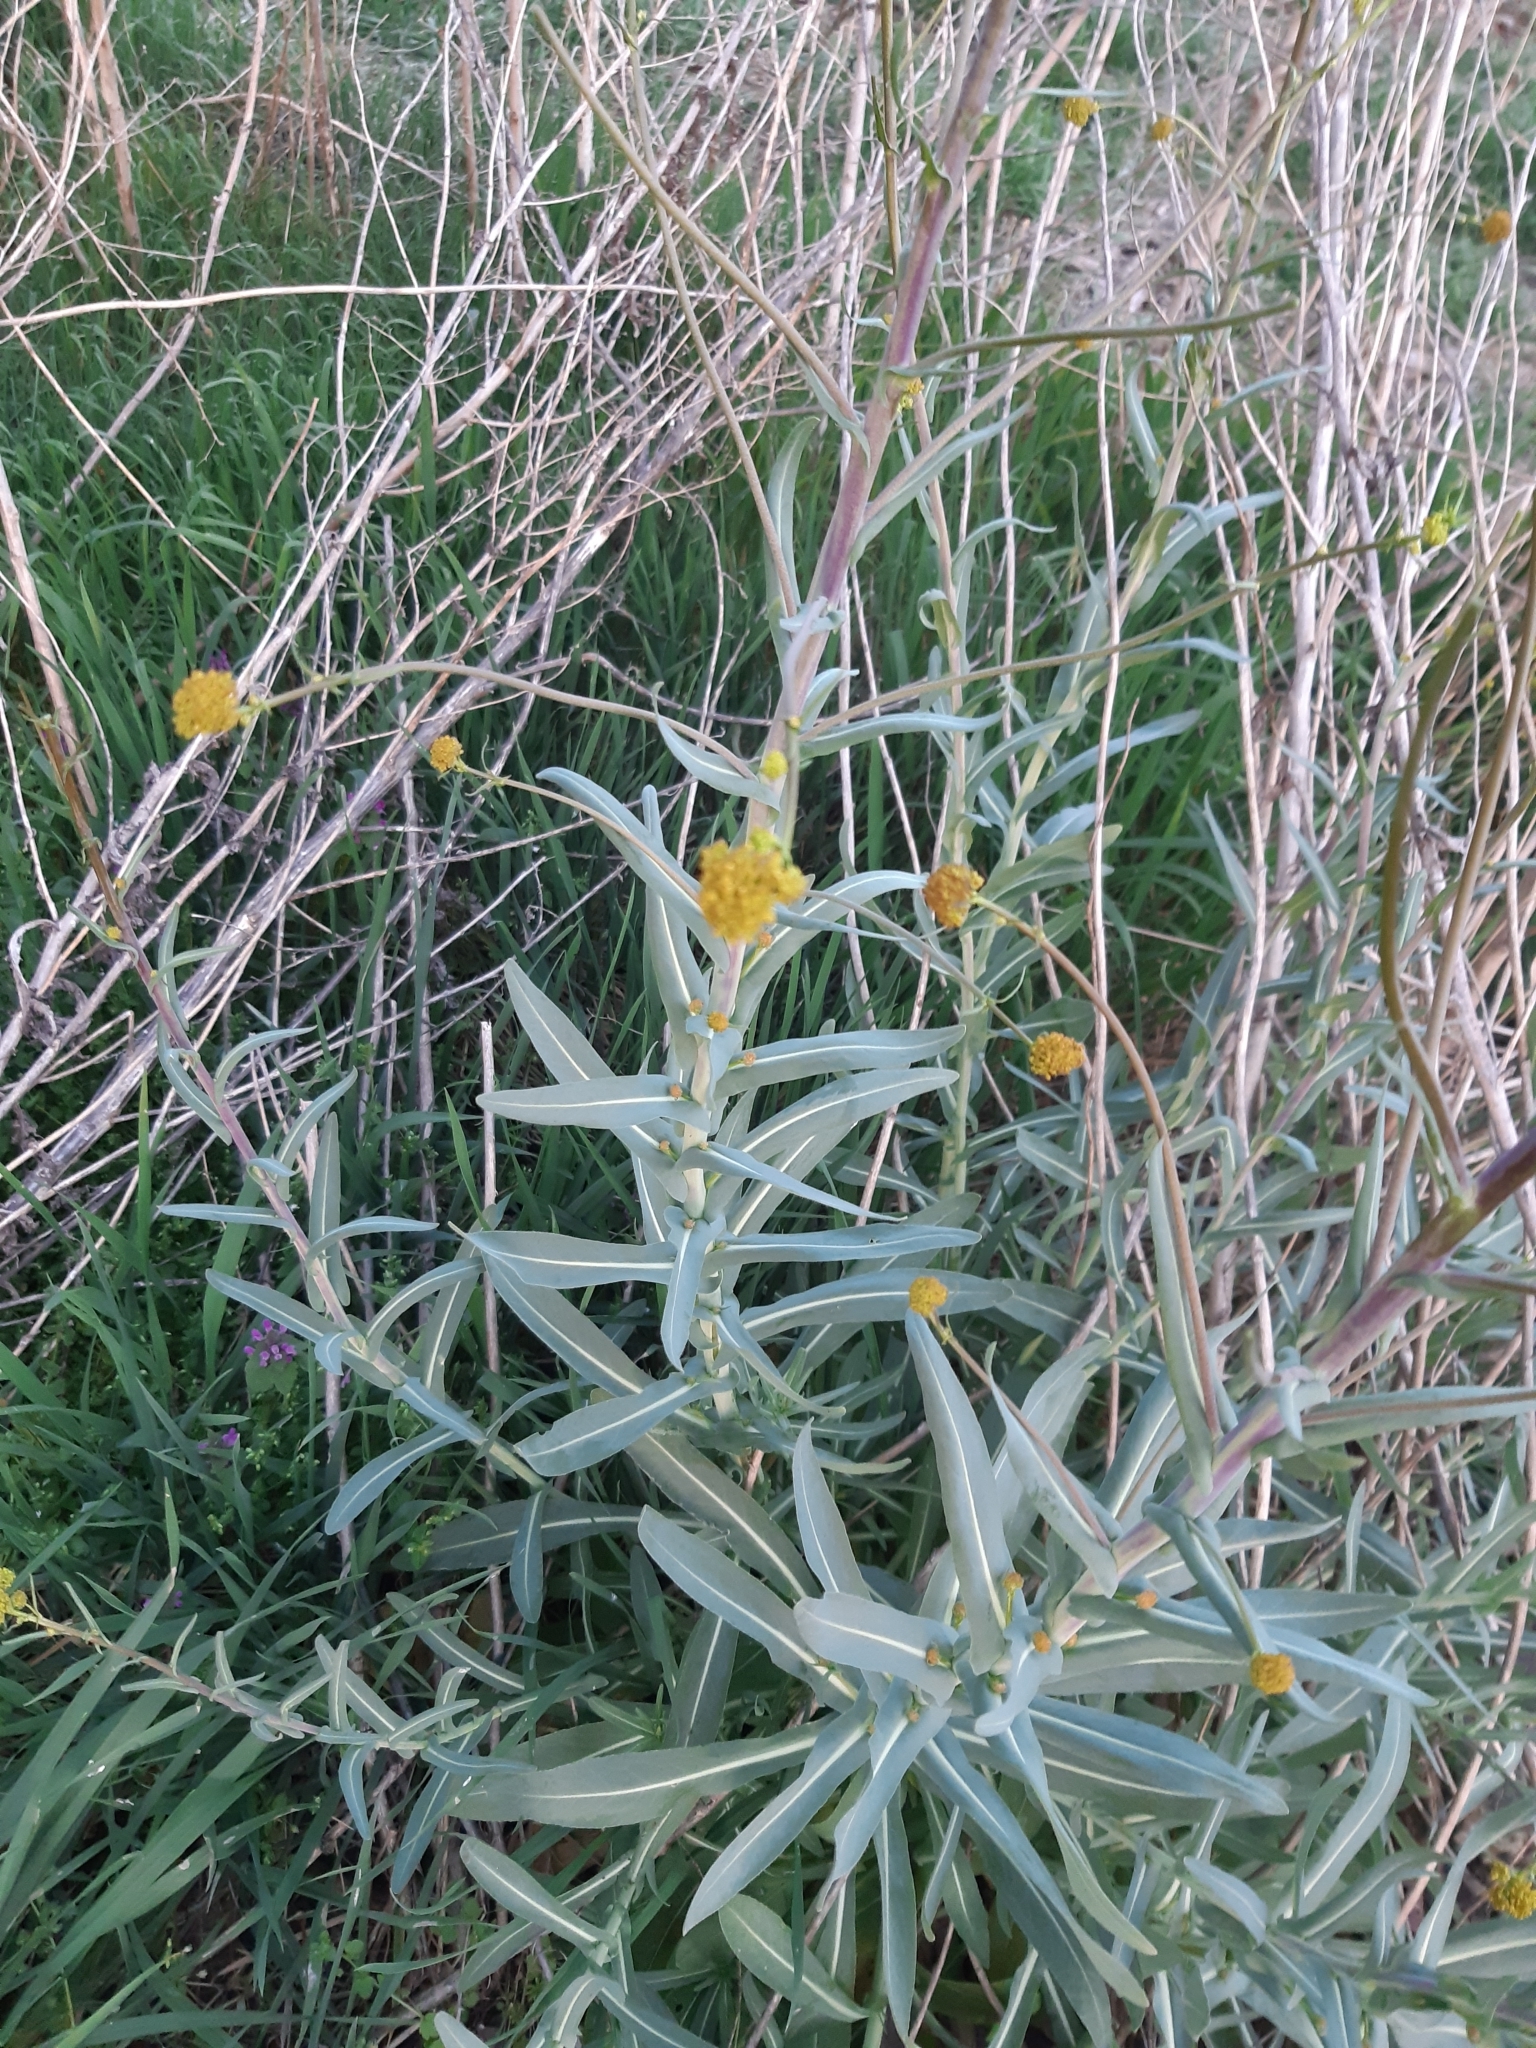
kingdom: Plantae
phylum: Tracheophyta
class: Magnoliopsida
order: Brassicales
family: Brassicaceae
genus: Isatis
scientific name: Isatis tinctoria
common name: Woad
